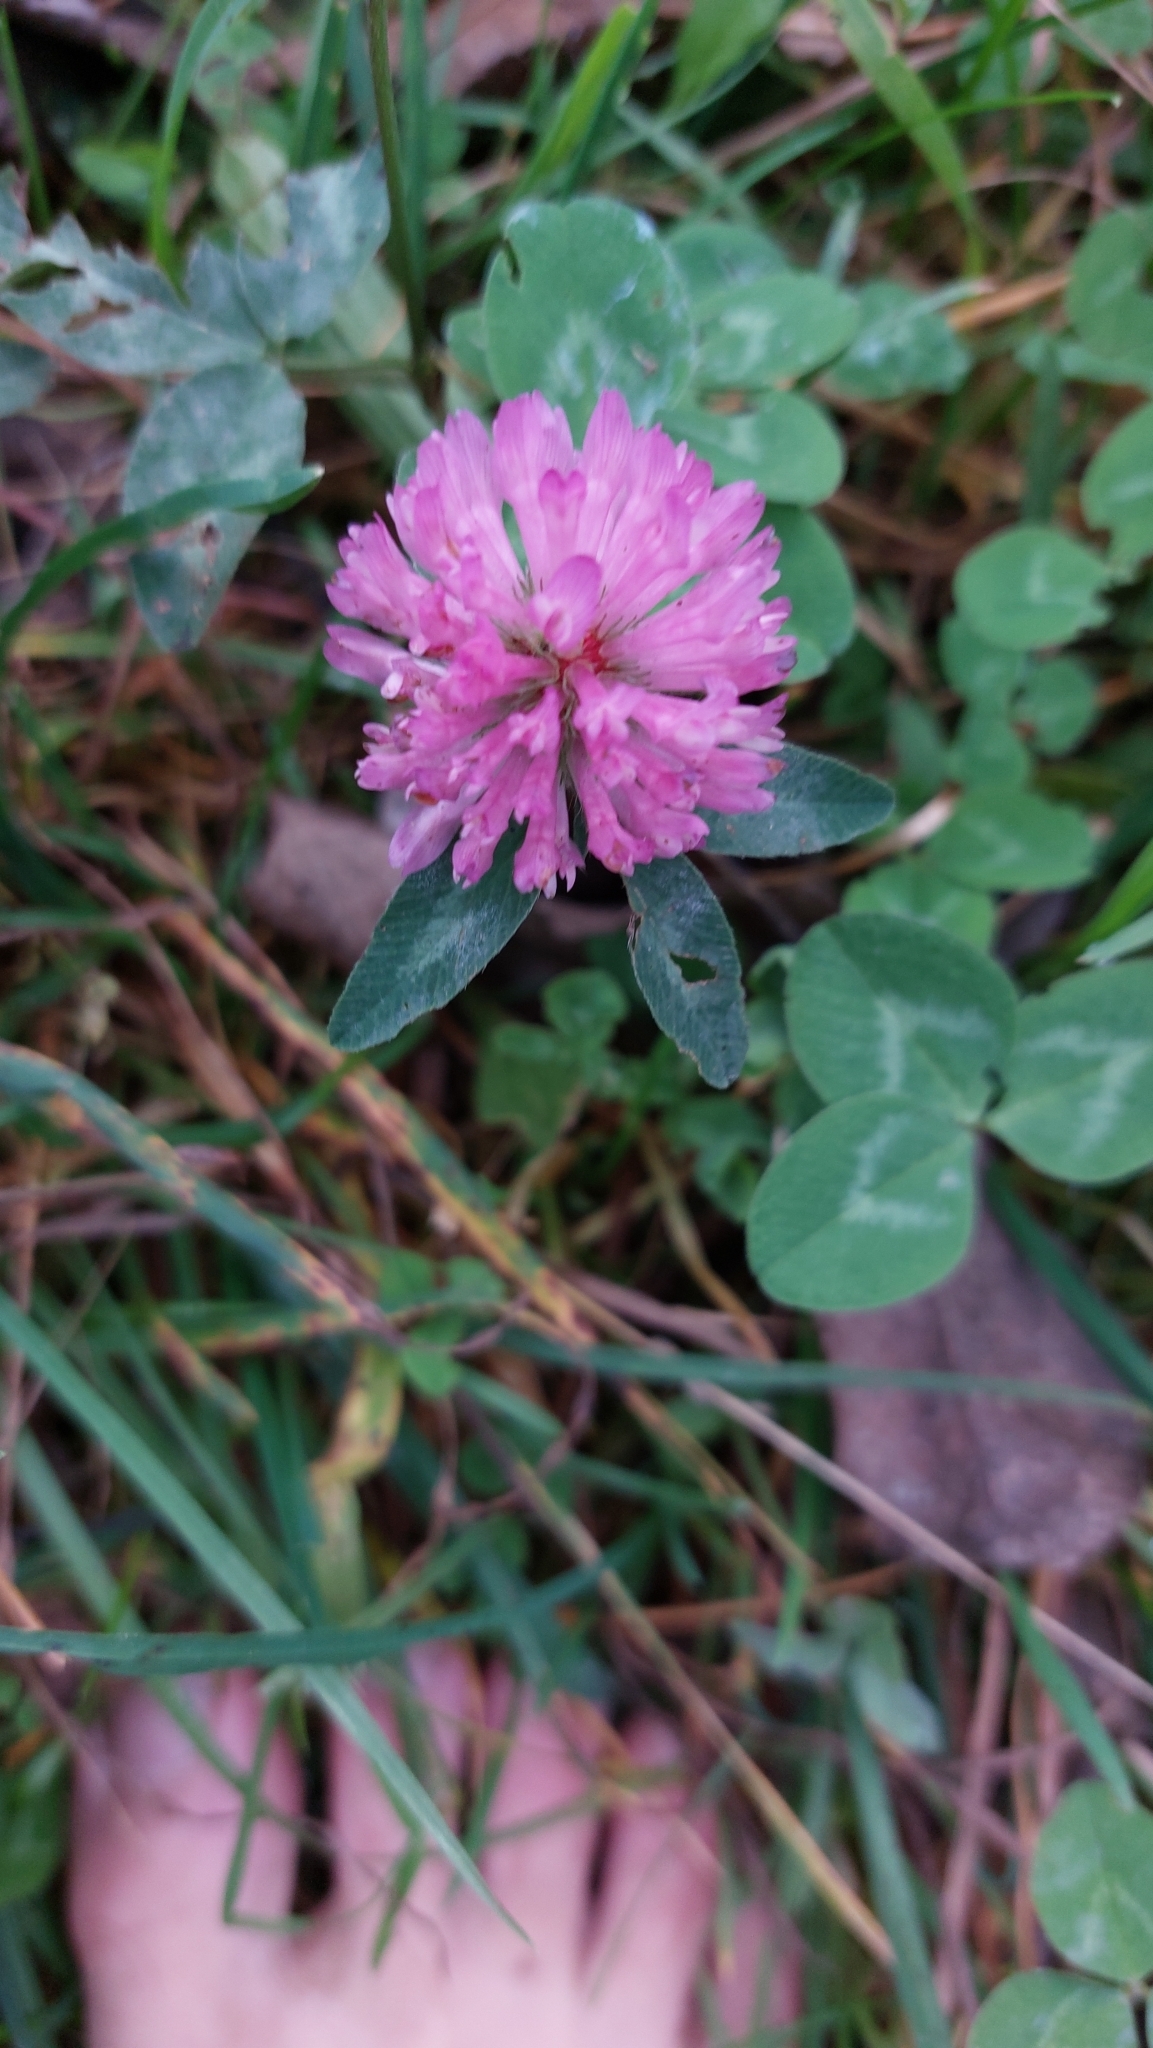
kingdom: Plantae
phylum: Tracheophyta
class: Magnoliopsida
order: Fabales
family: Fabaceae
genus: Trifolium
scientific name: Trifolium pratense
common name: Red clover
